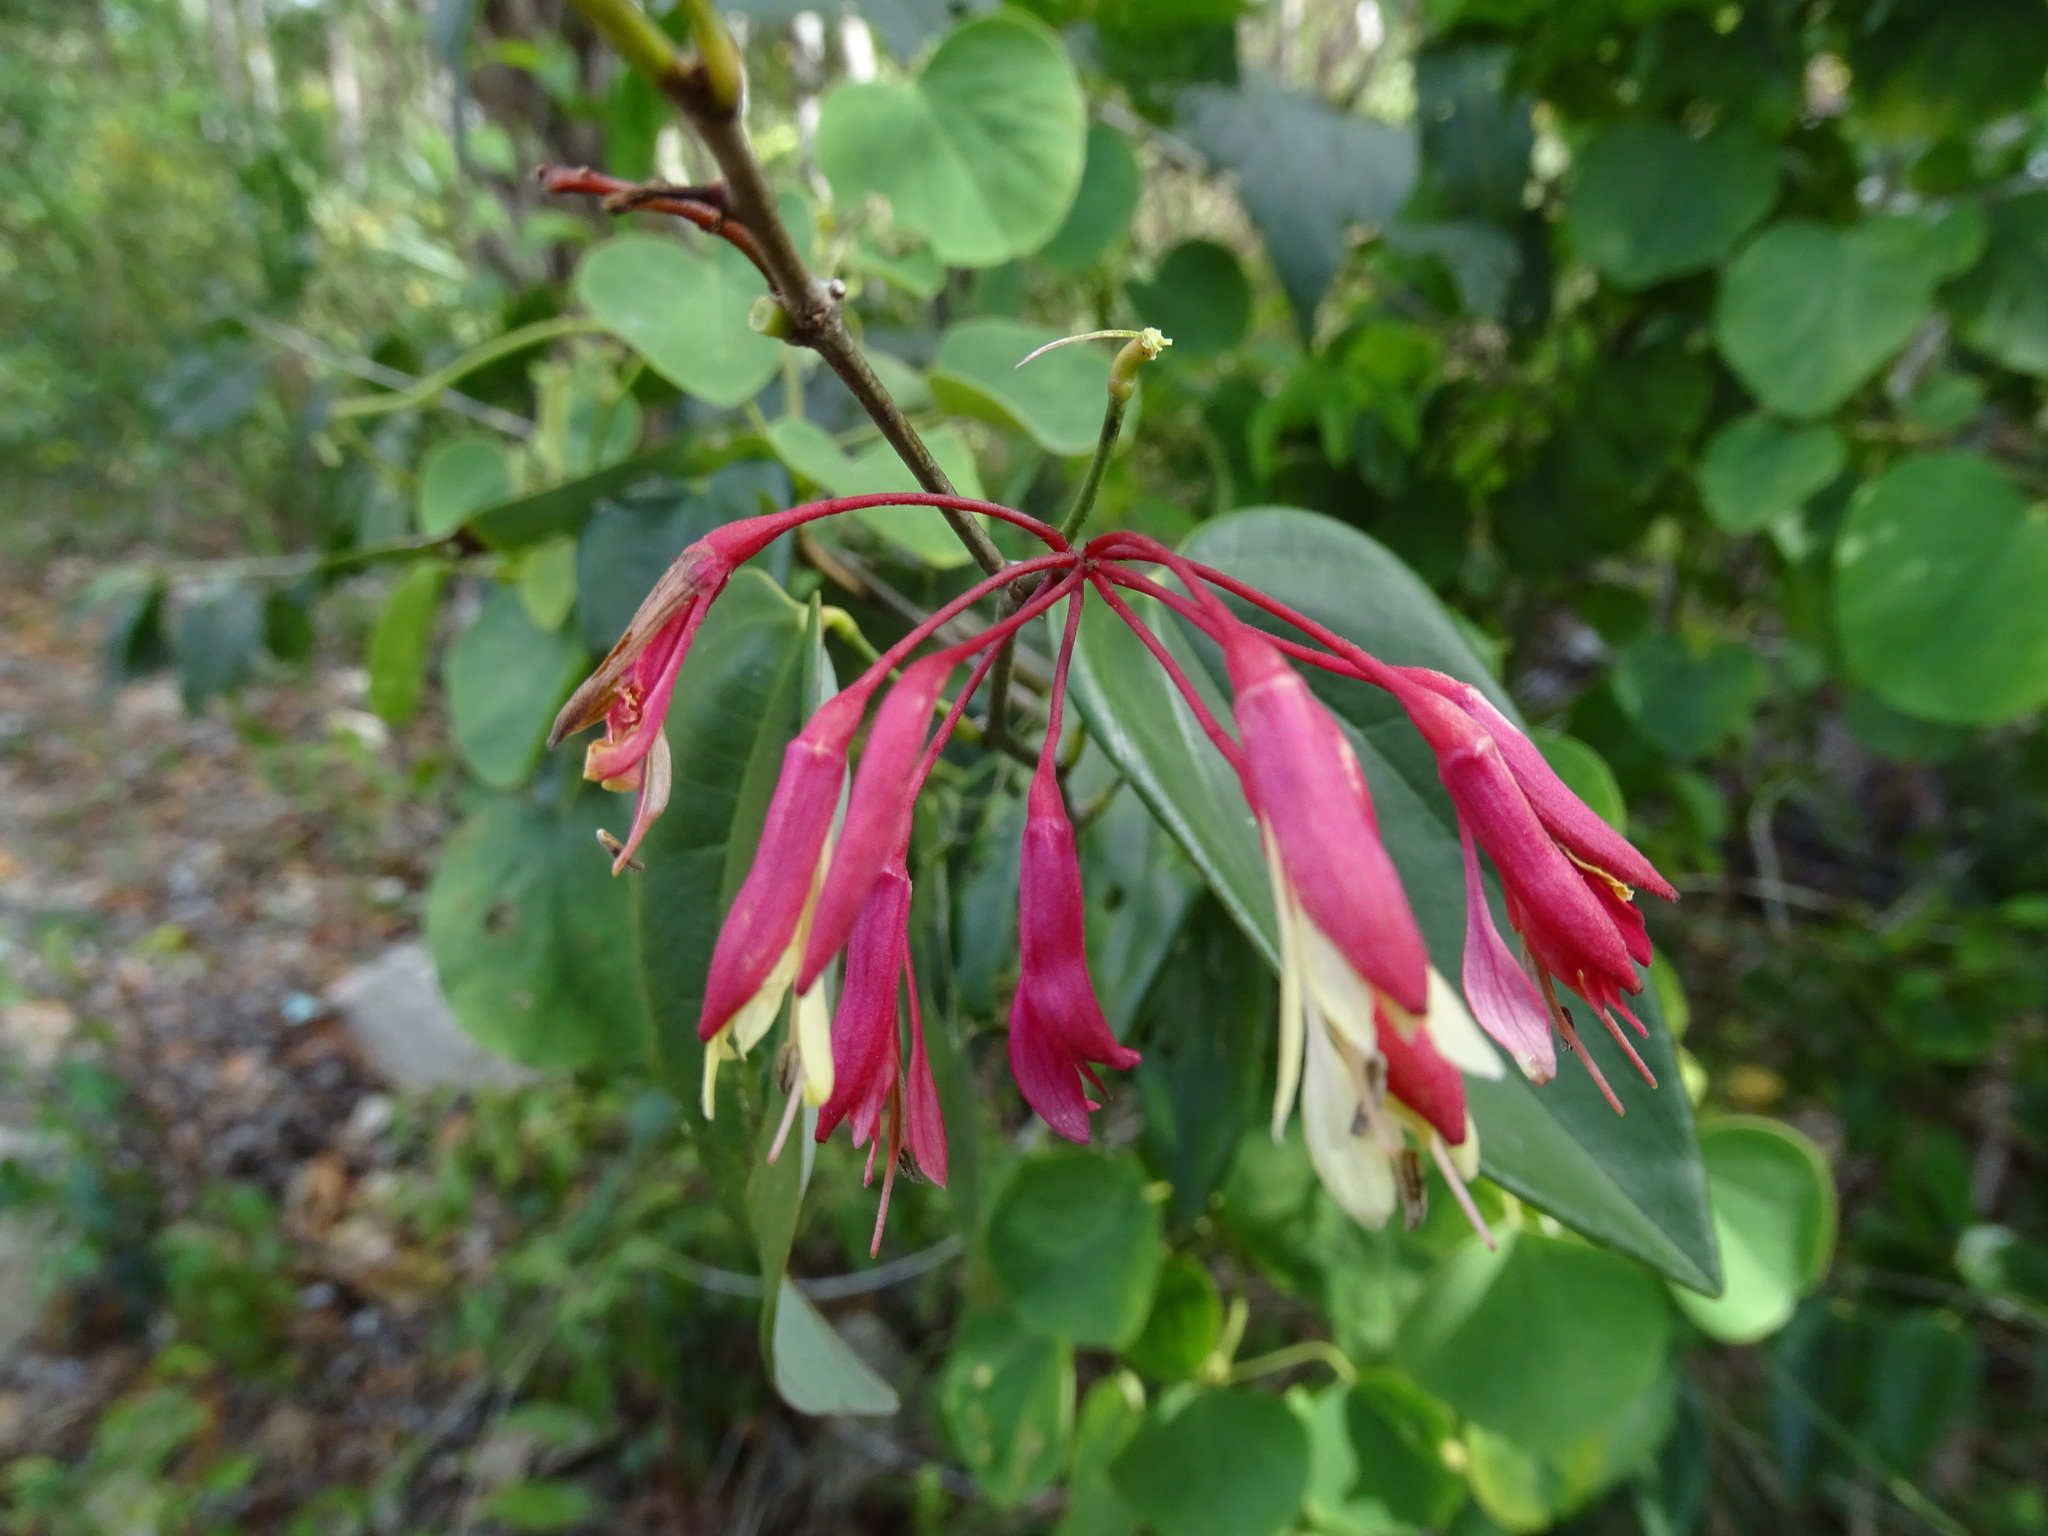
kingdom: Plantae
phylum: Tracheophyta
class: Magnoliopsida
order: Fabales
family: Fabaceae
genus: Bauhinia
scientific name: Bauhinia jenningsii
